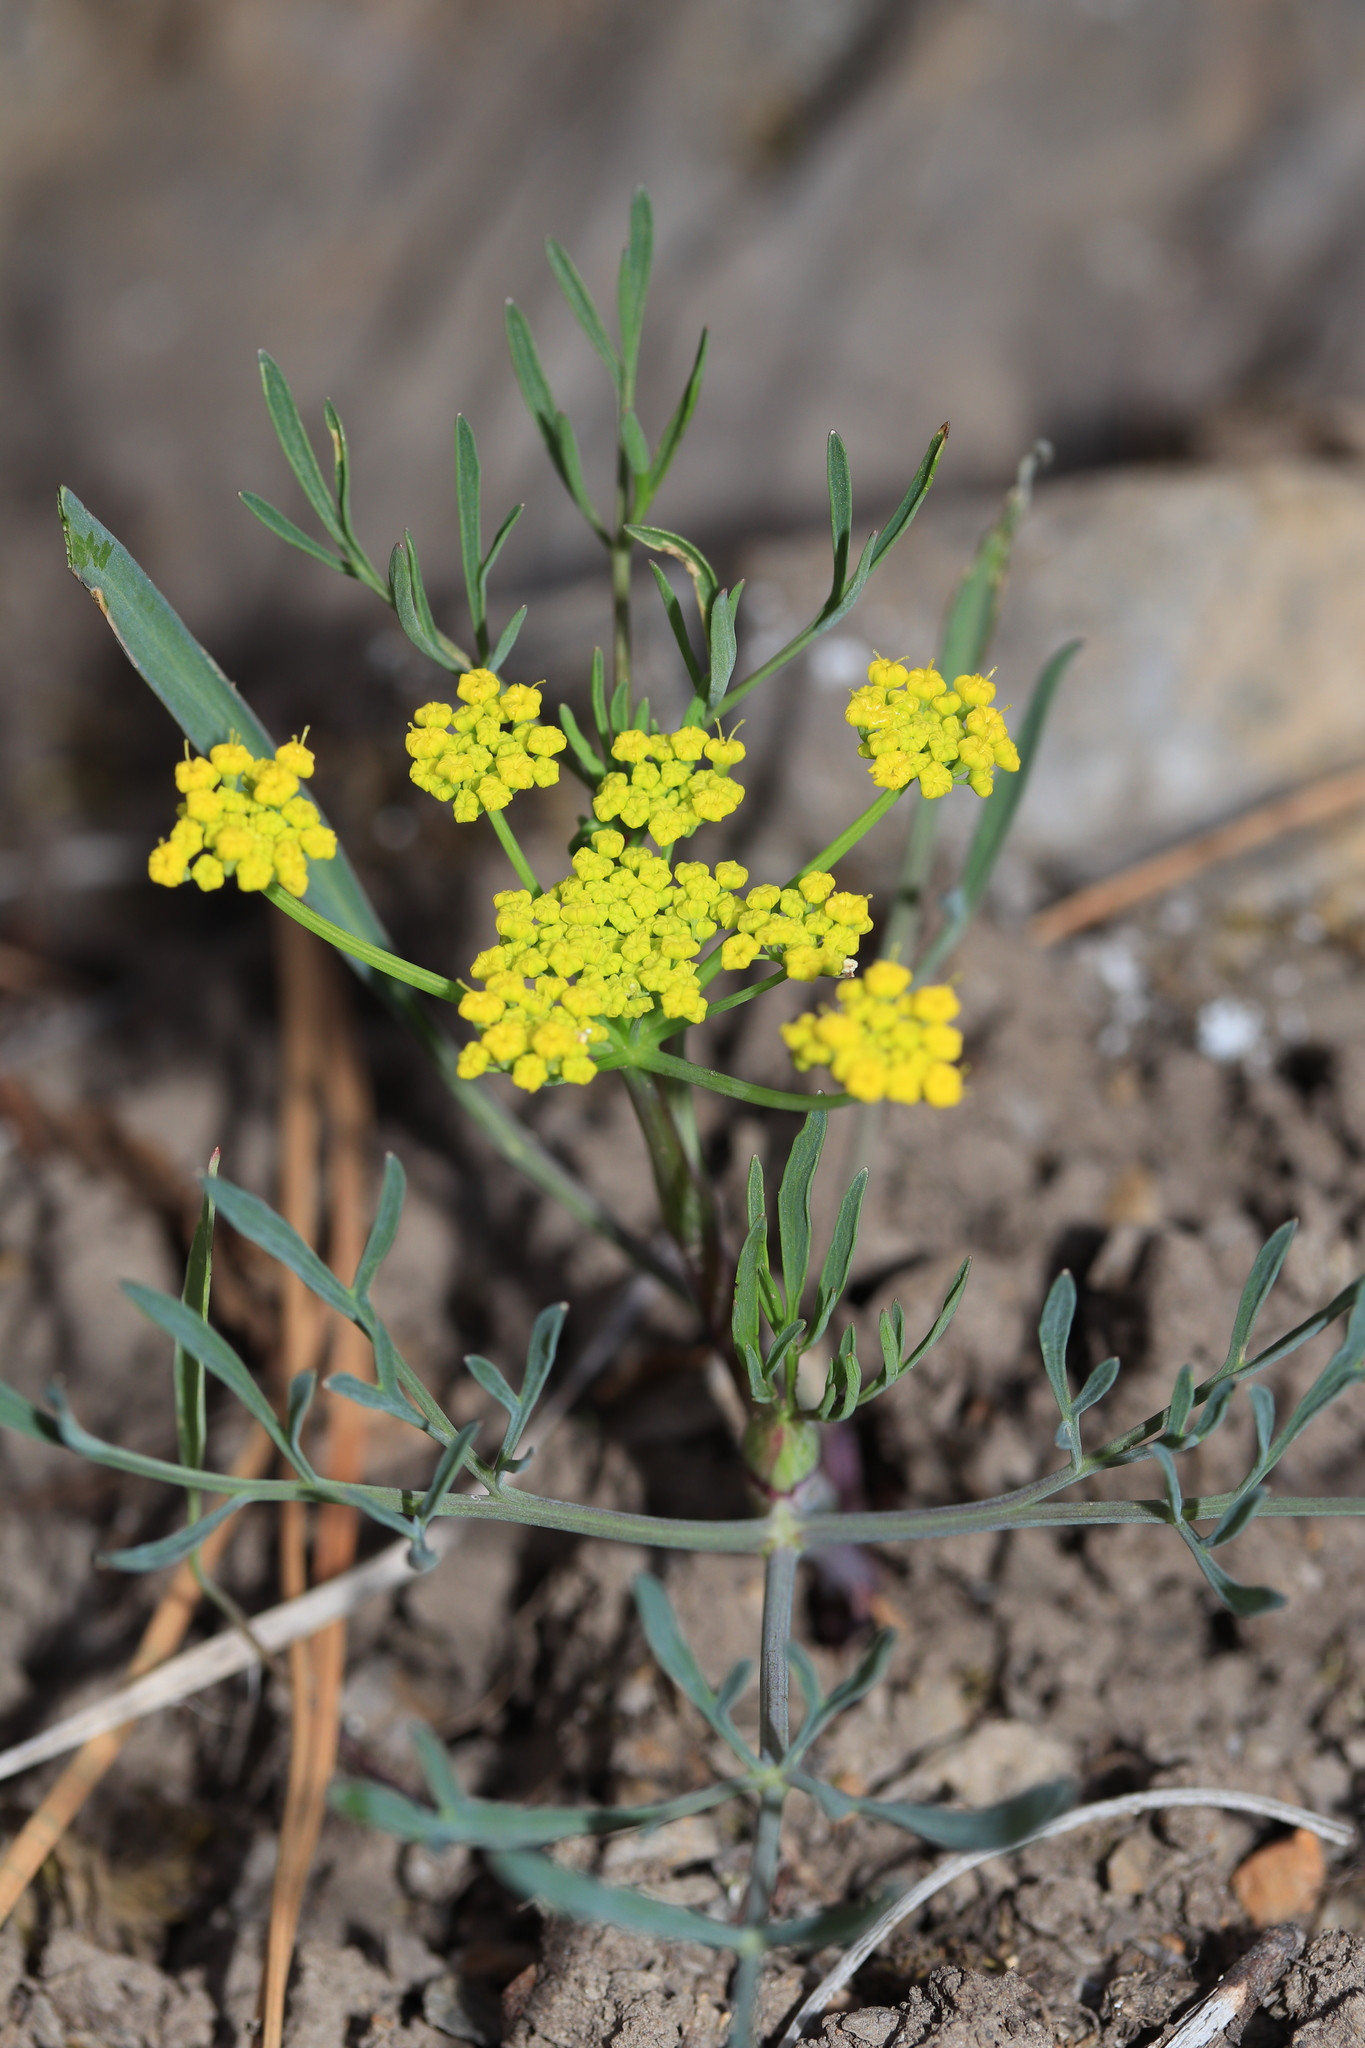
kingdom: Plantae
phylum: Tracheophyta
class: Magnoliopsida
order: Apiales
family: Apiaceae
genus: Lomatium
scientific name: Lomatium ambiguum
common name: Lacy lomatium
